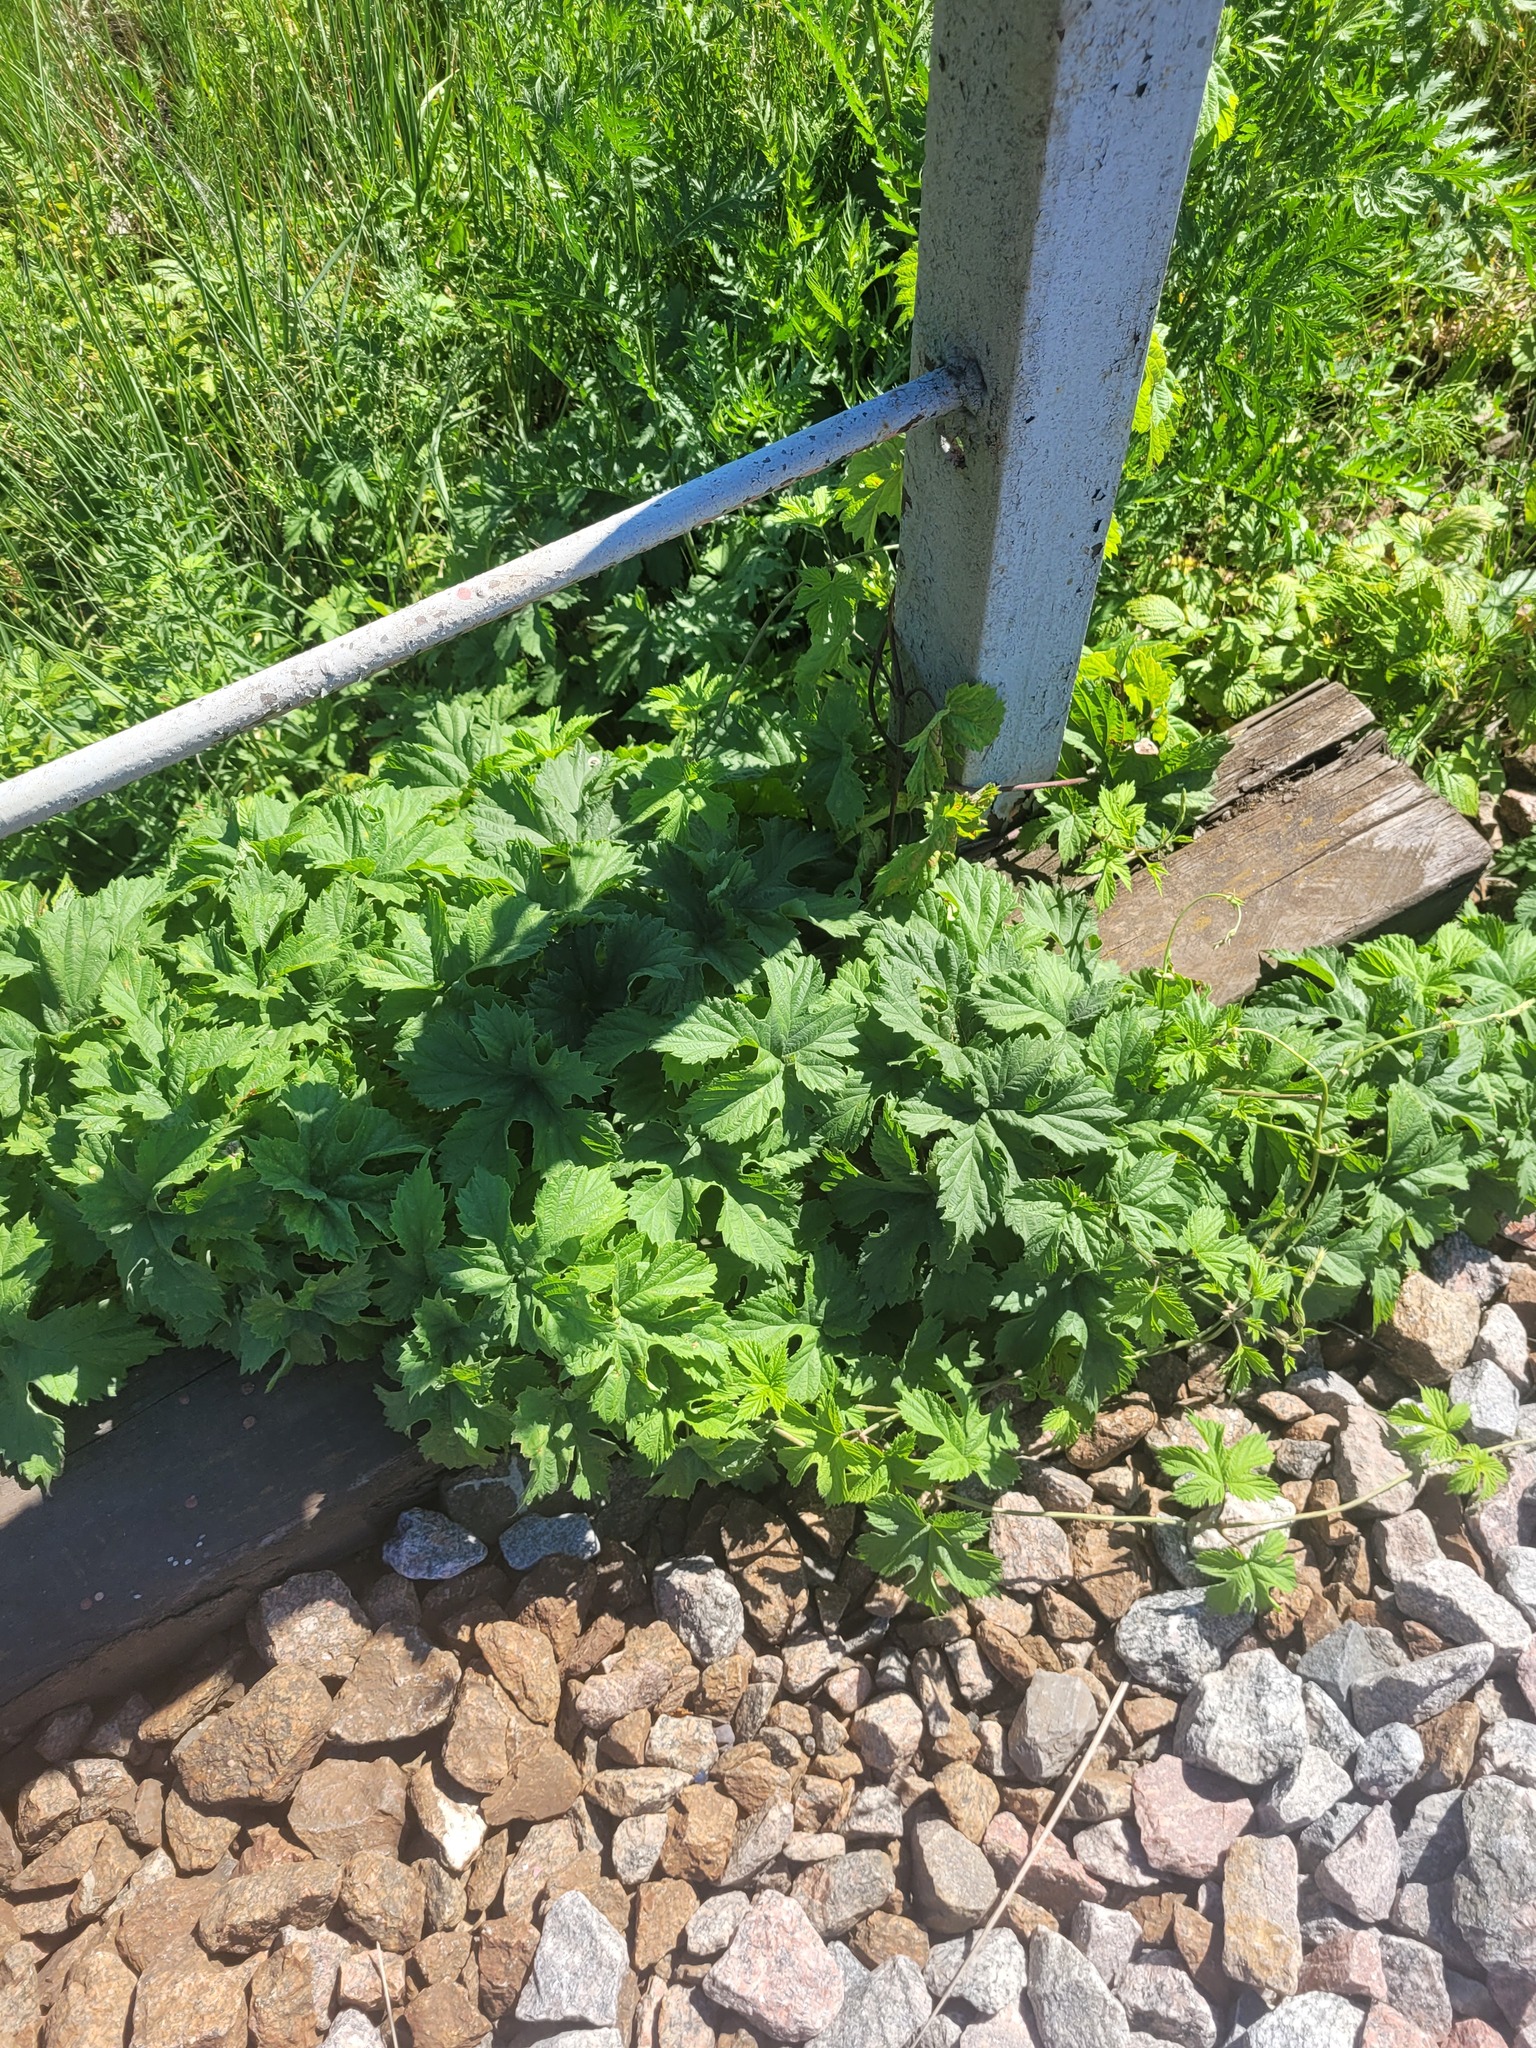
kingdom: Plantae
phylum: Tracheophyta
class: Magnoliopsida
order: Rosales
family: Cannabaceae
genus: Humulus
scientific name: Humulus lupulus
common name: Hop
